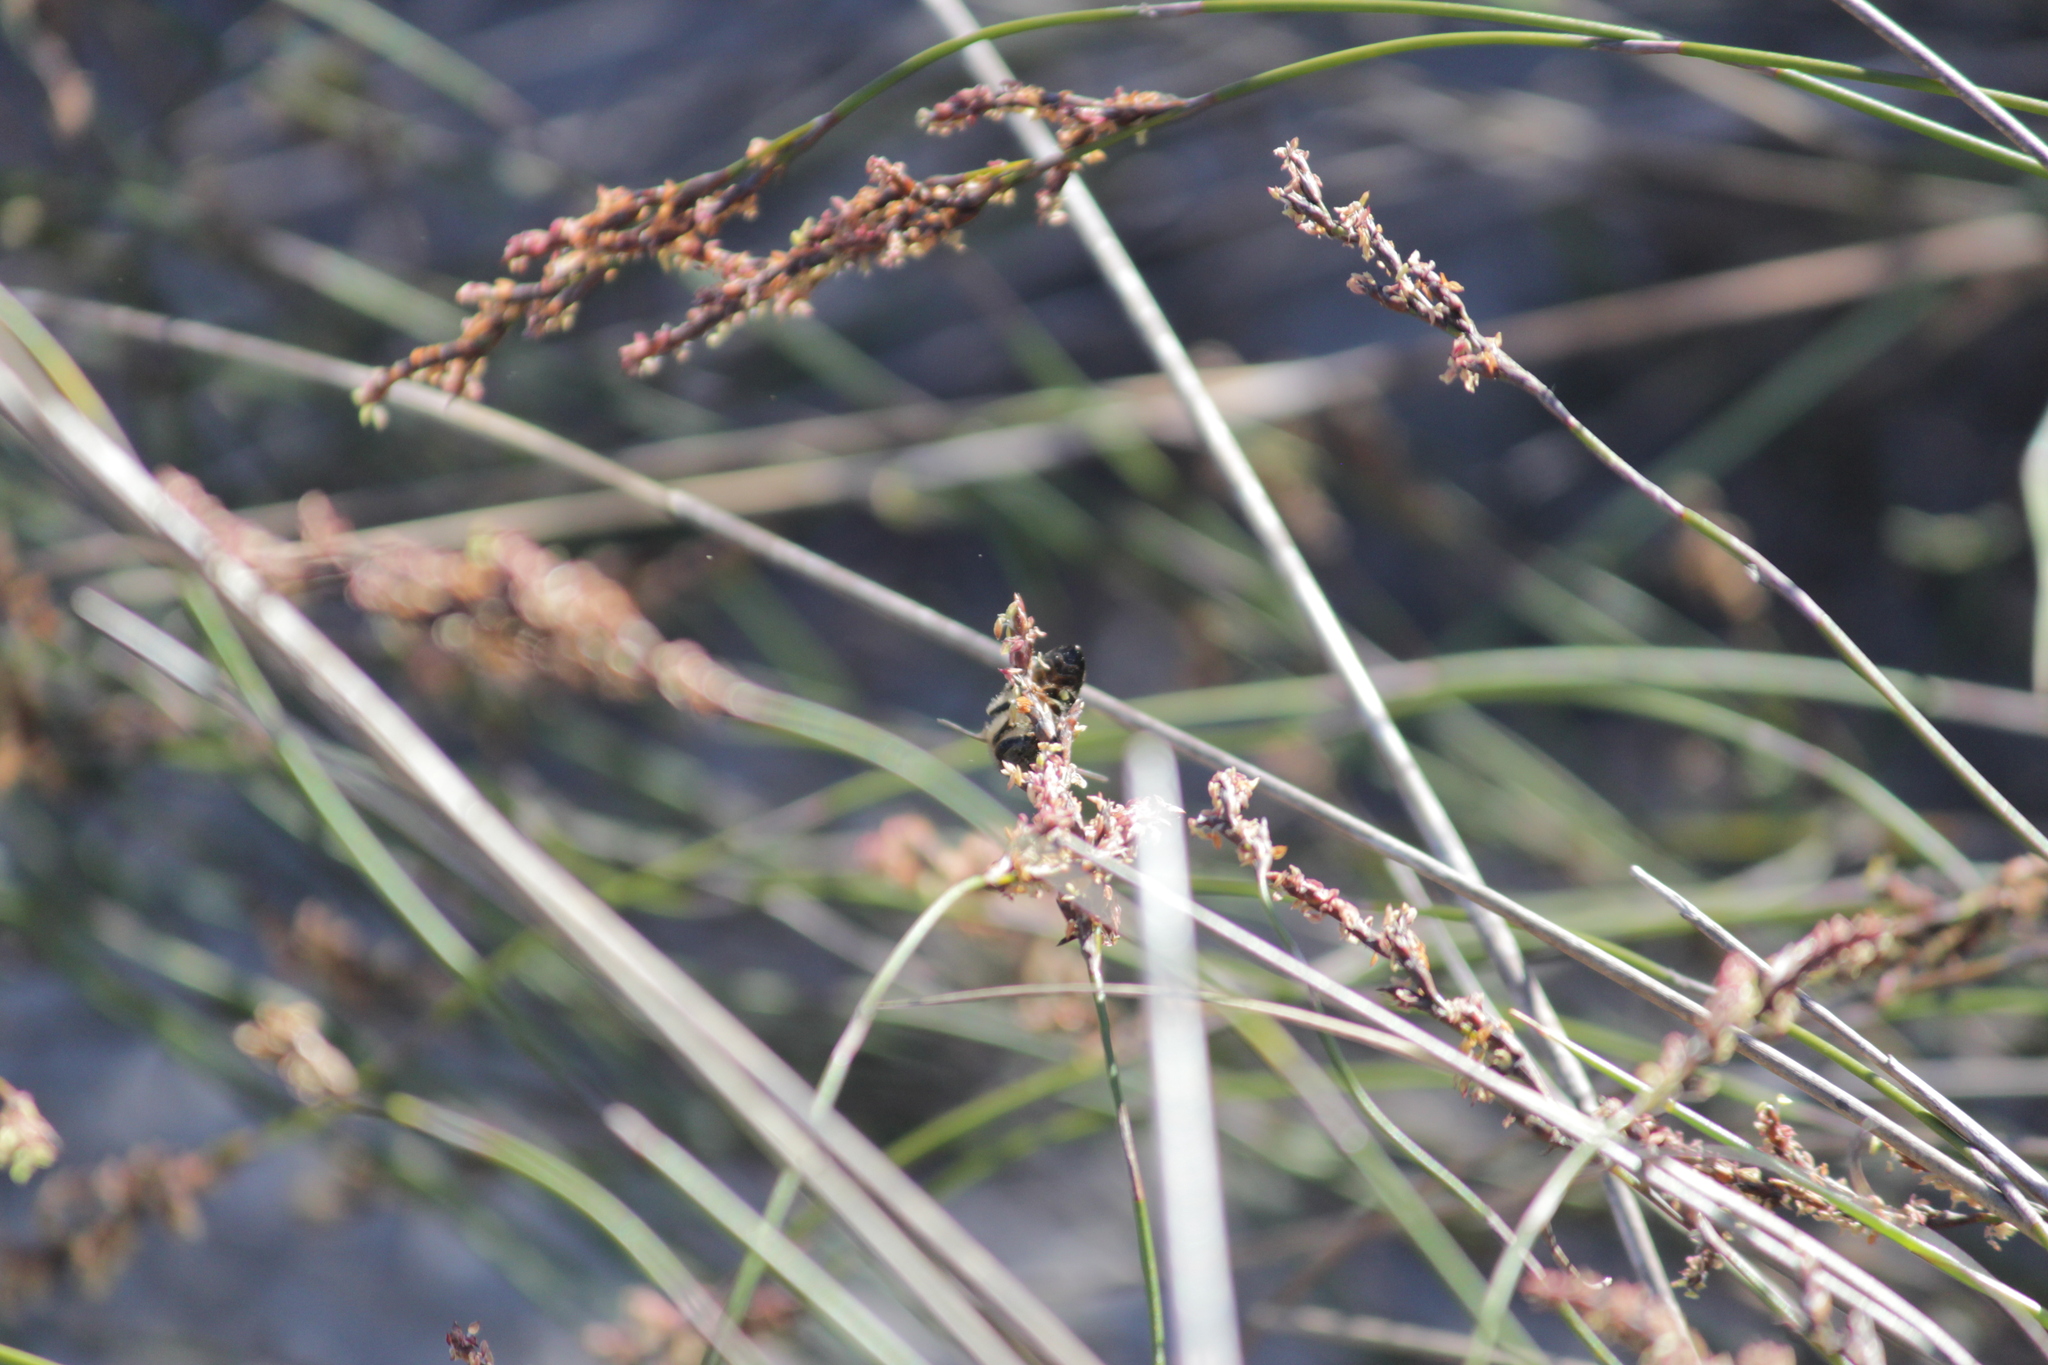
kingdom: Animalia
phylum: Arthropoda
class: Insecta
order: Hymenoptera
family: Apidae
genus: Apis
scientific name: Apis mellifera
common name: Honey bee
